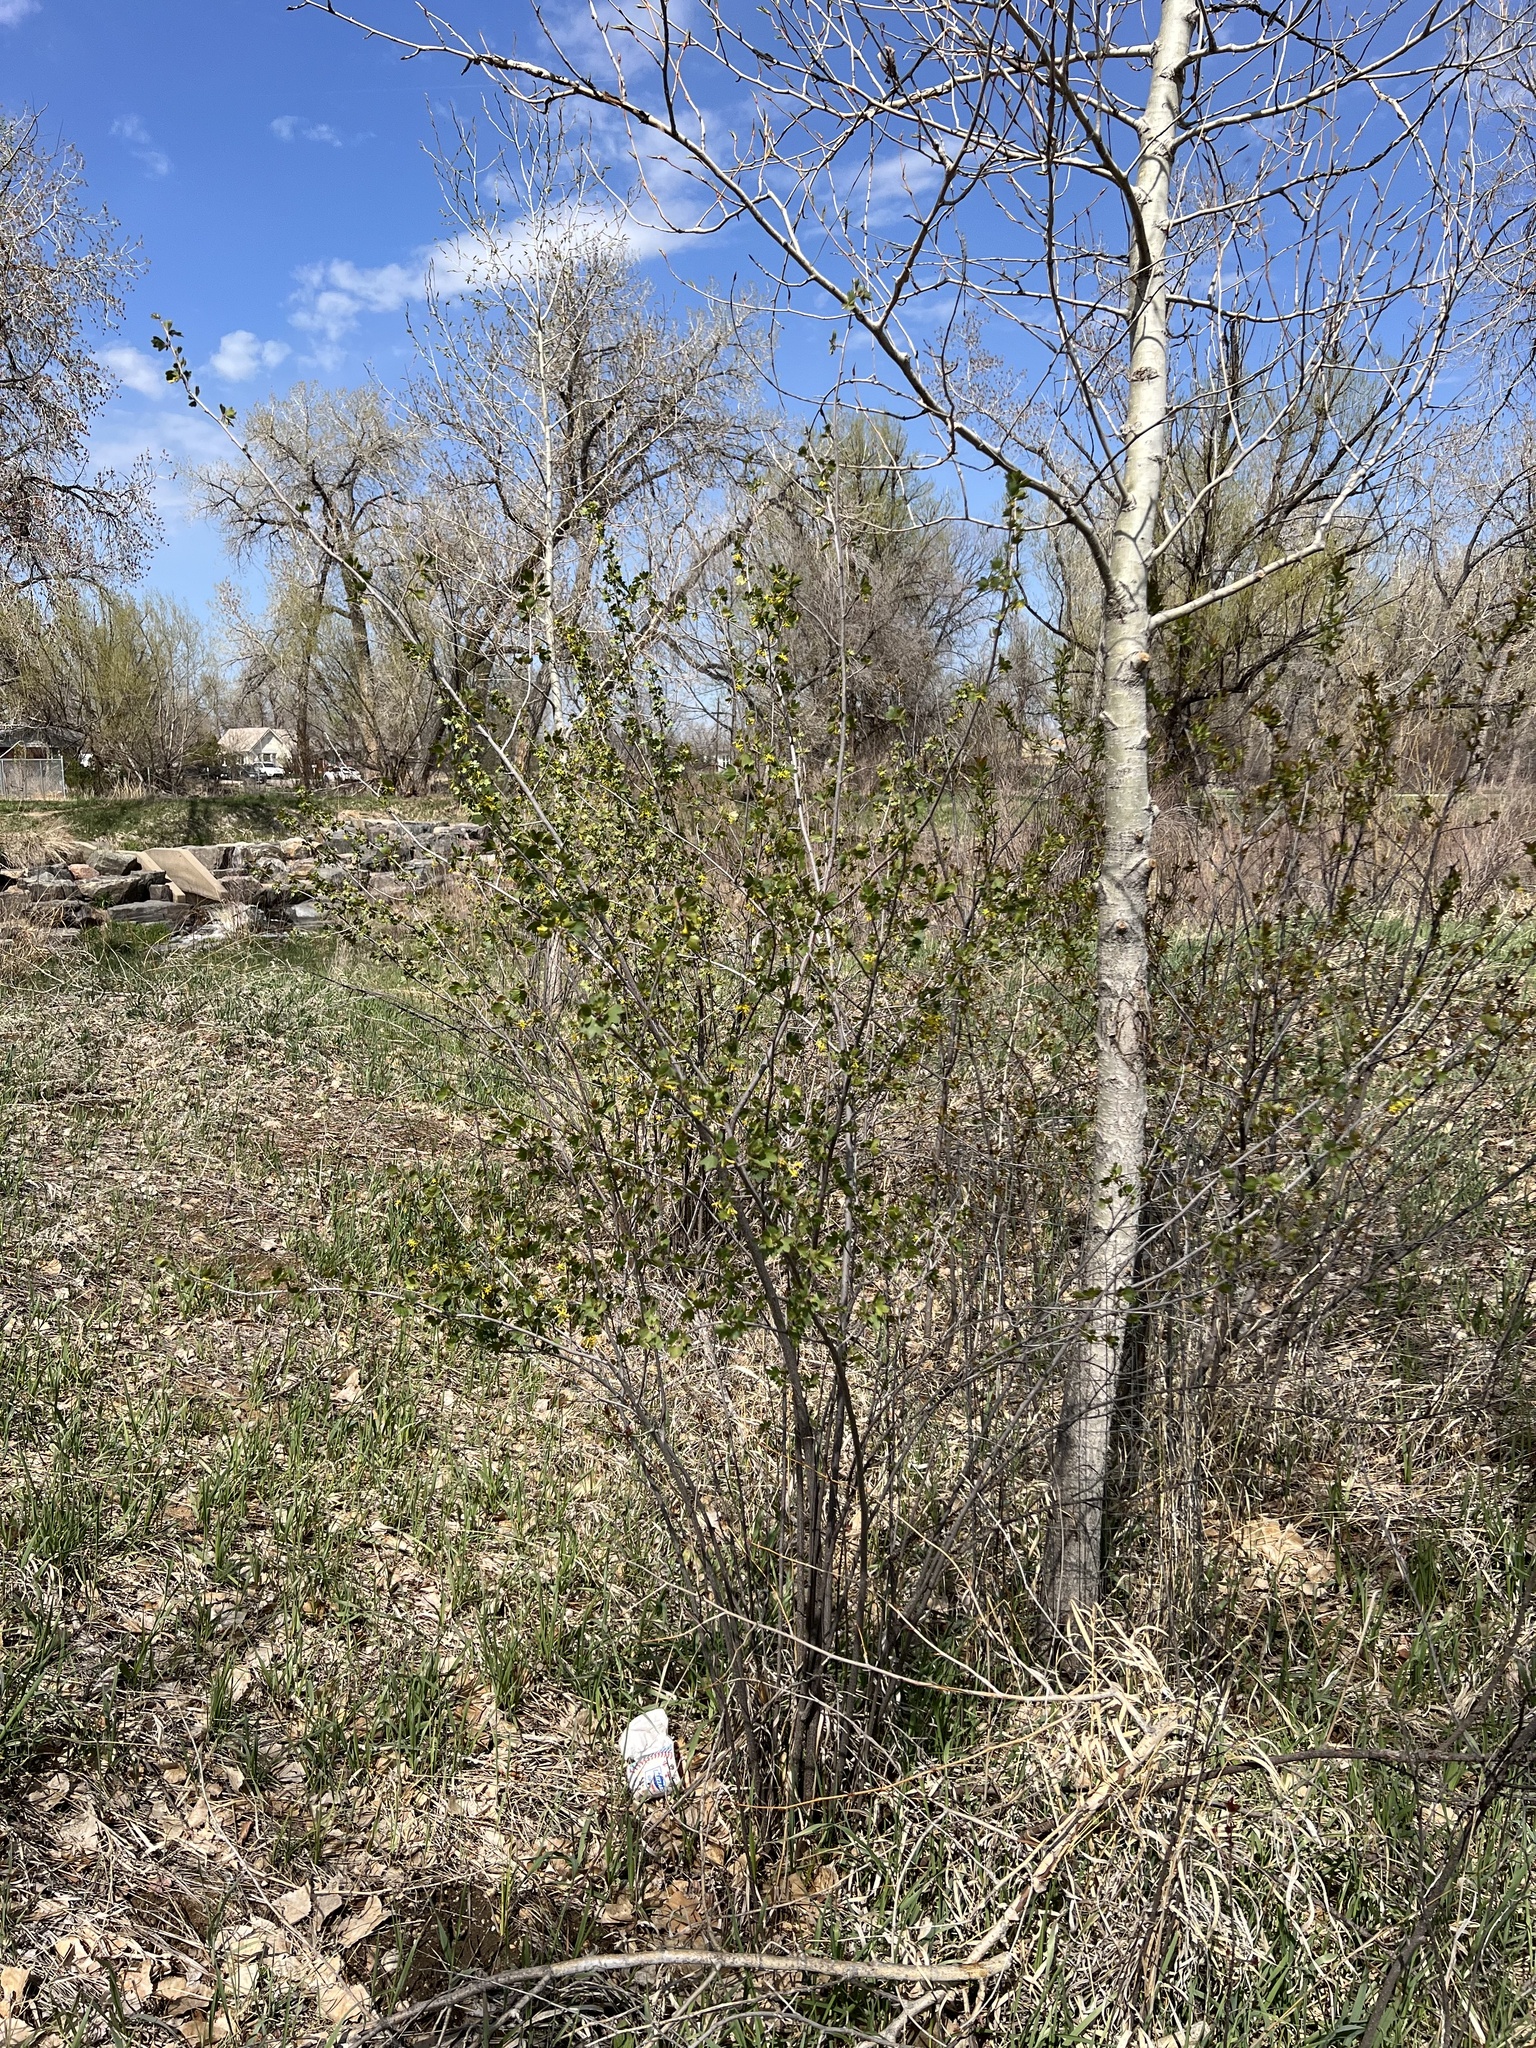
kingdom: Plantae
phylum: Tracheophyta
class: Magnoliopsida
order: Saxifragales
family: Grossulariaceae
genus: Ribes
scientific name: Ribes aureum
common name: Golden currant
